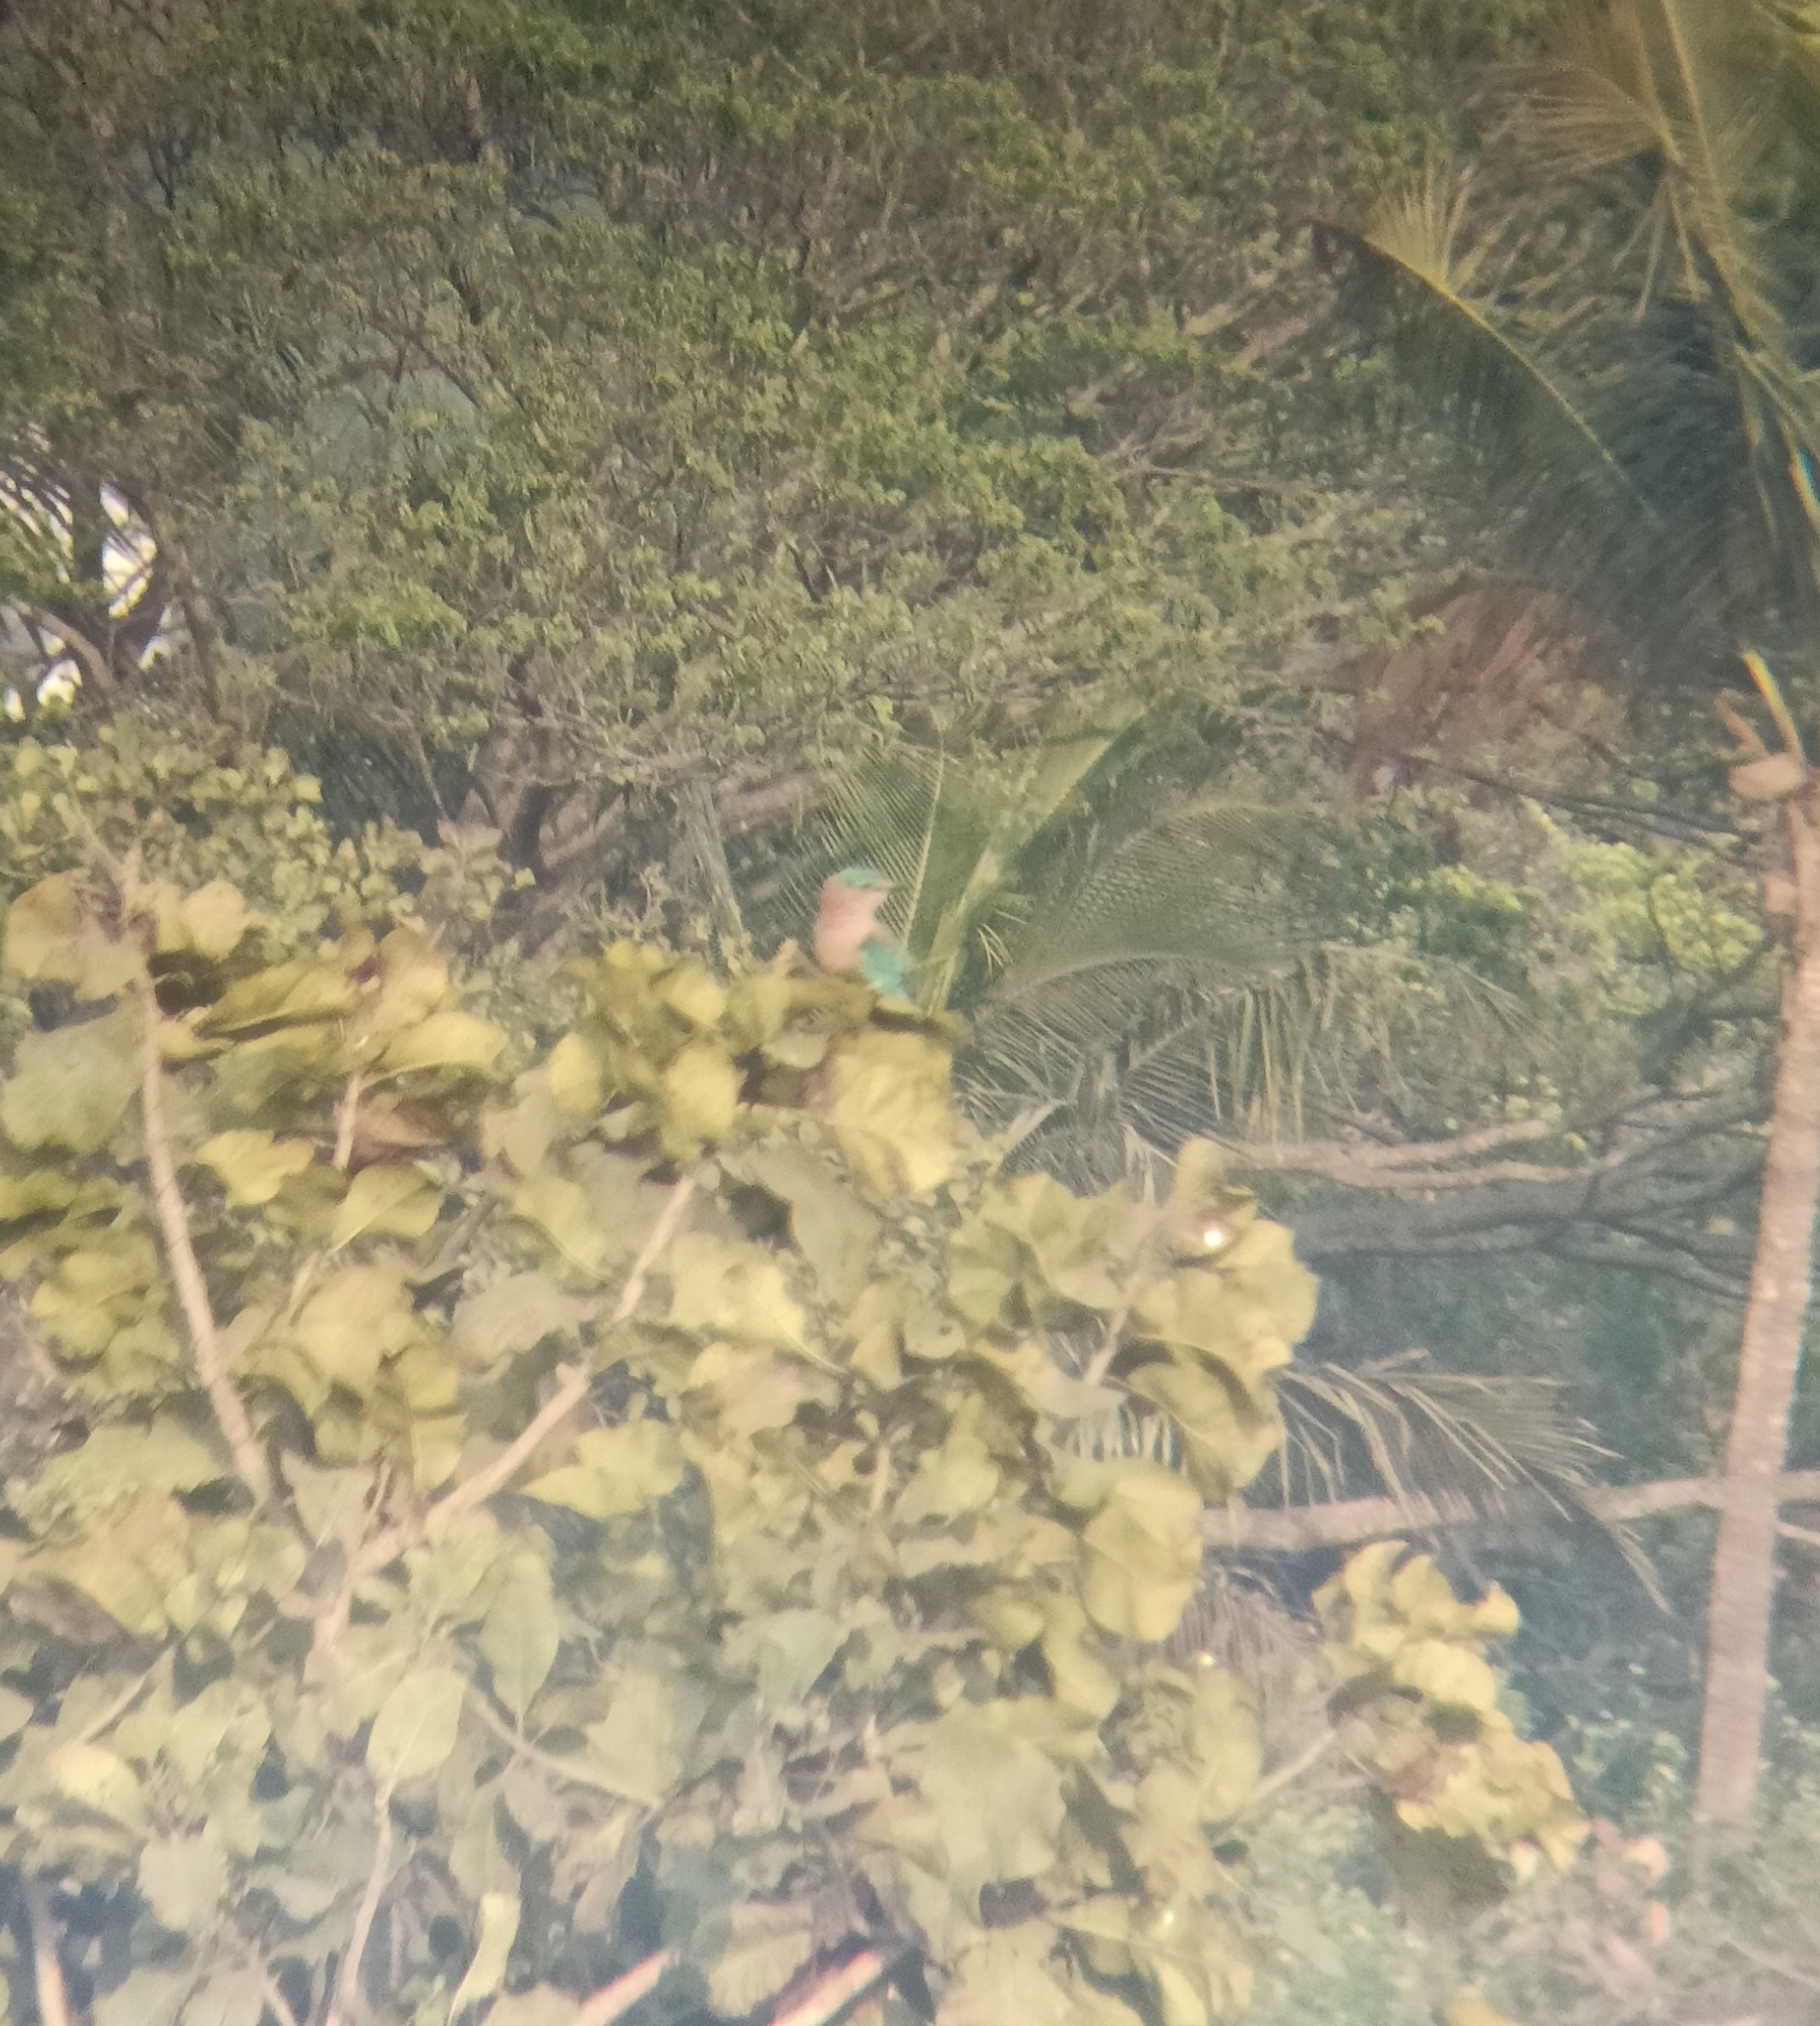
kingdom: Animalia
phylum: Chordata
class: Aves
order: Coraciiformes
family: Coraciidae
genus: Coracias
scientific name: Coracias benghalensis
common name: Indian roller
